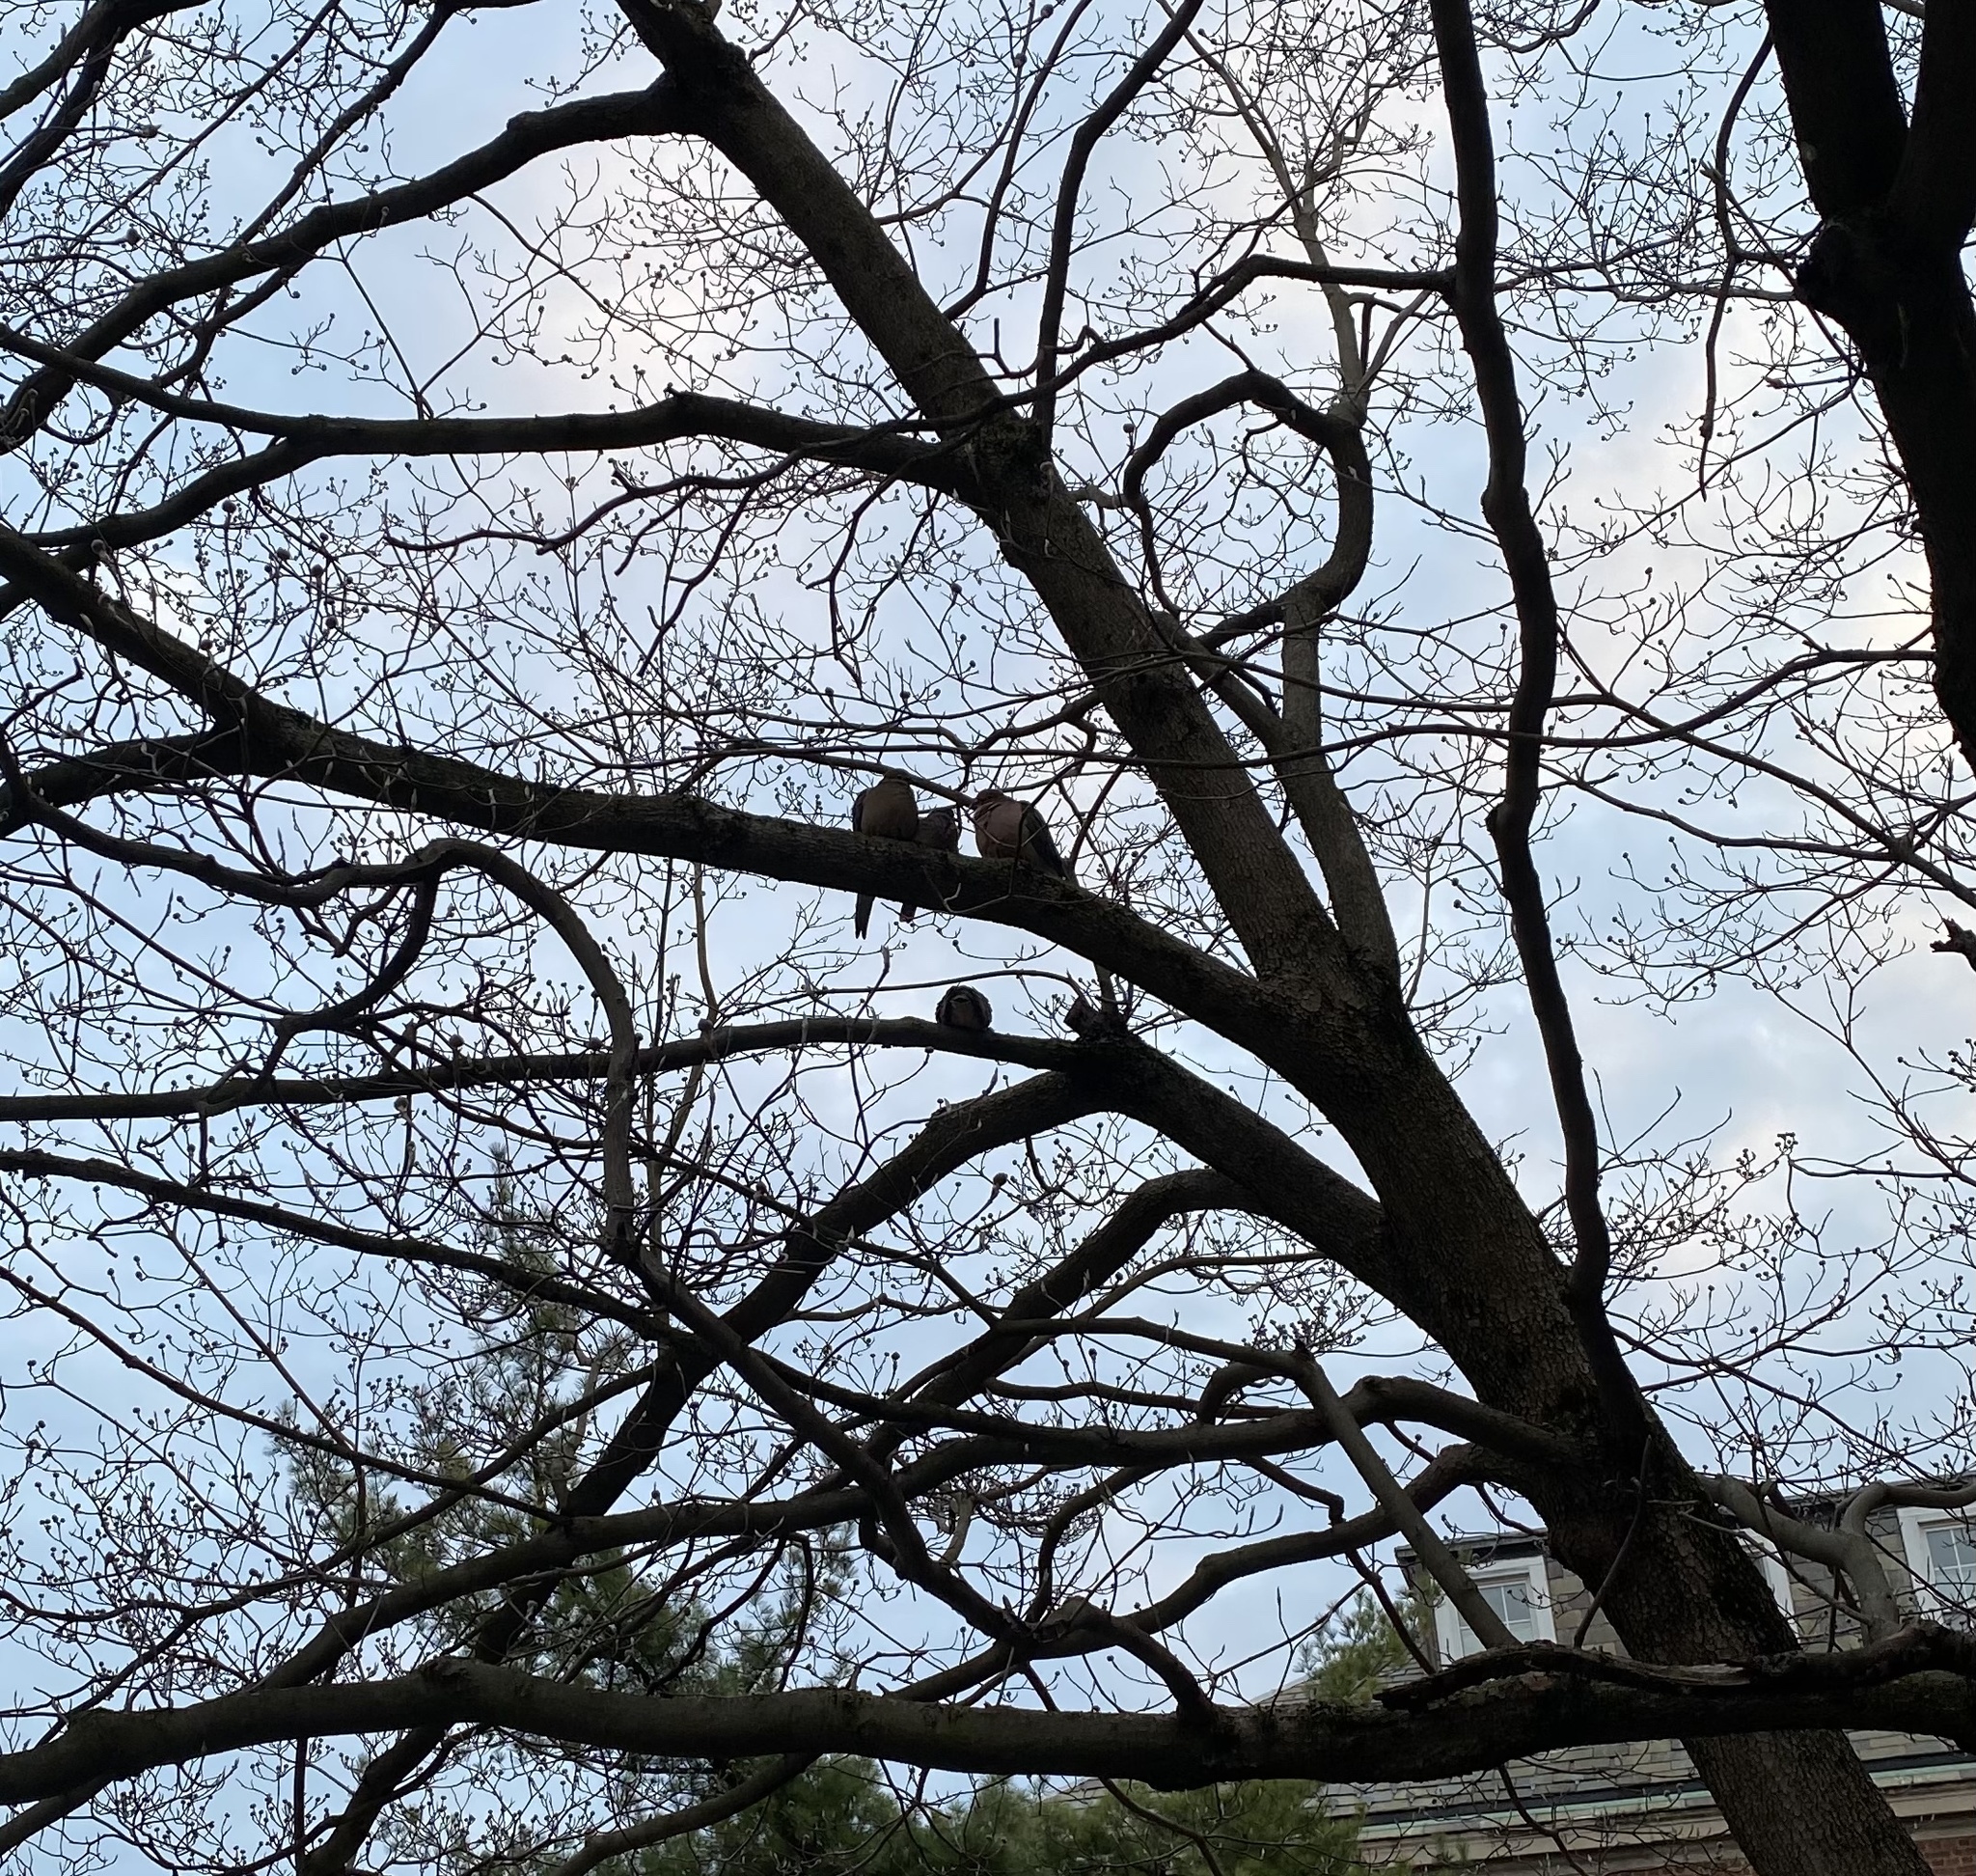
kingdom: Animalia
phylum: Chordata
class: Aves
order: Columbiformes
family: Columbidae
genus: Zenaida
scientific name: Zenaida macroura
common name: Mourning dove
